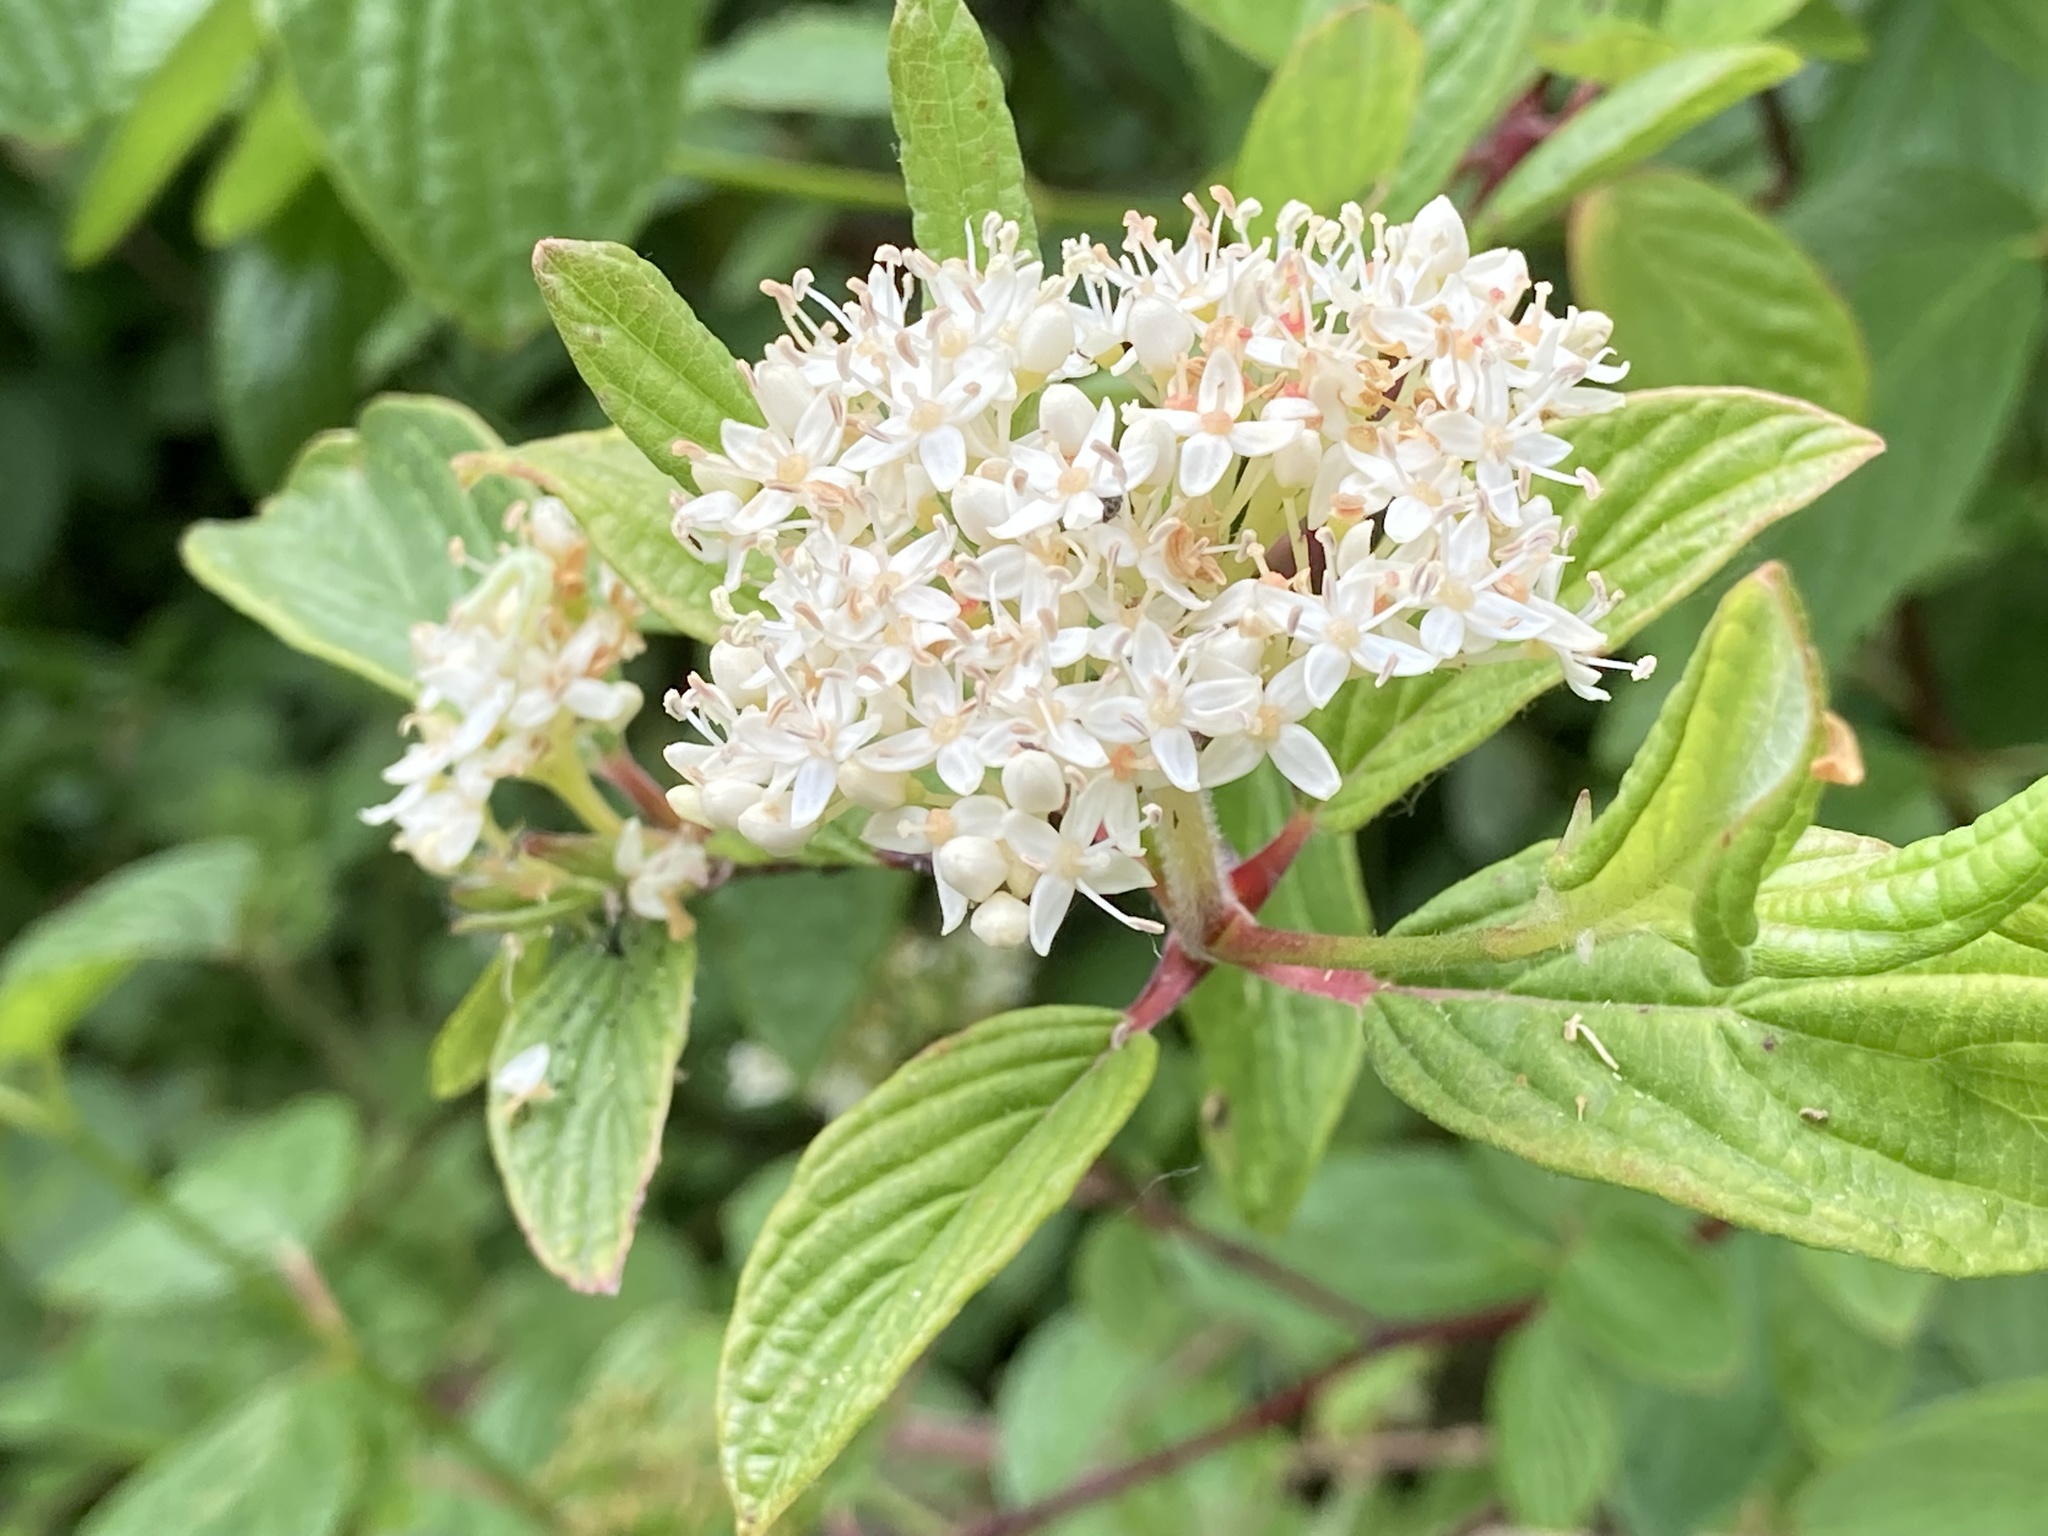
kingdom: Plantae
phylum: Tracheophyta
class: Magnoliopsida
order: Cornales
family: Cornaceae
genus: Cornus
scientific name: Cornus sericea
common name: Red-osier dogwood
